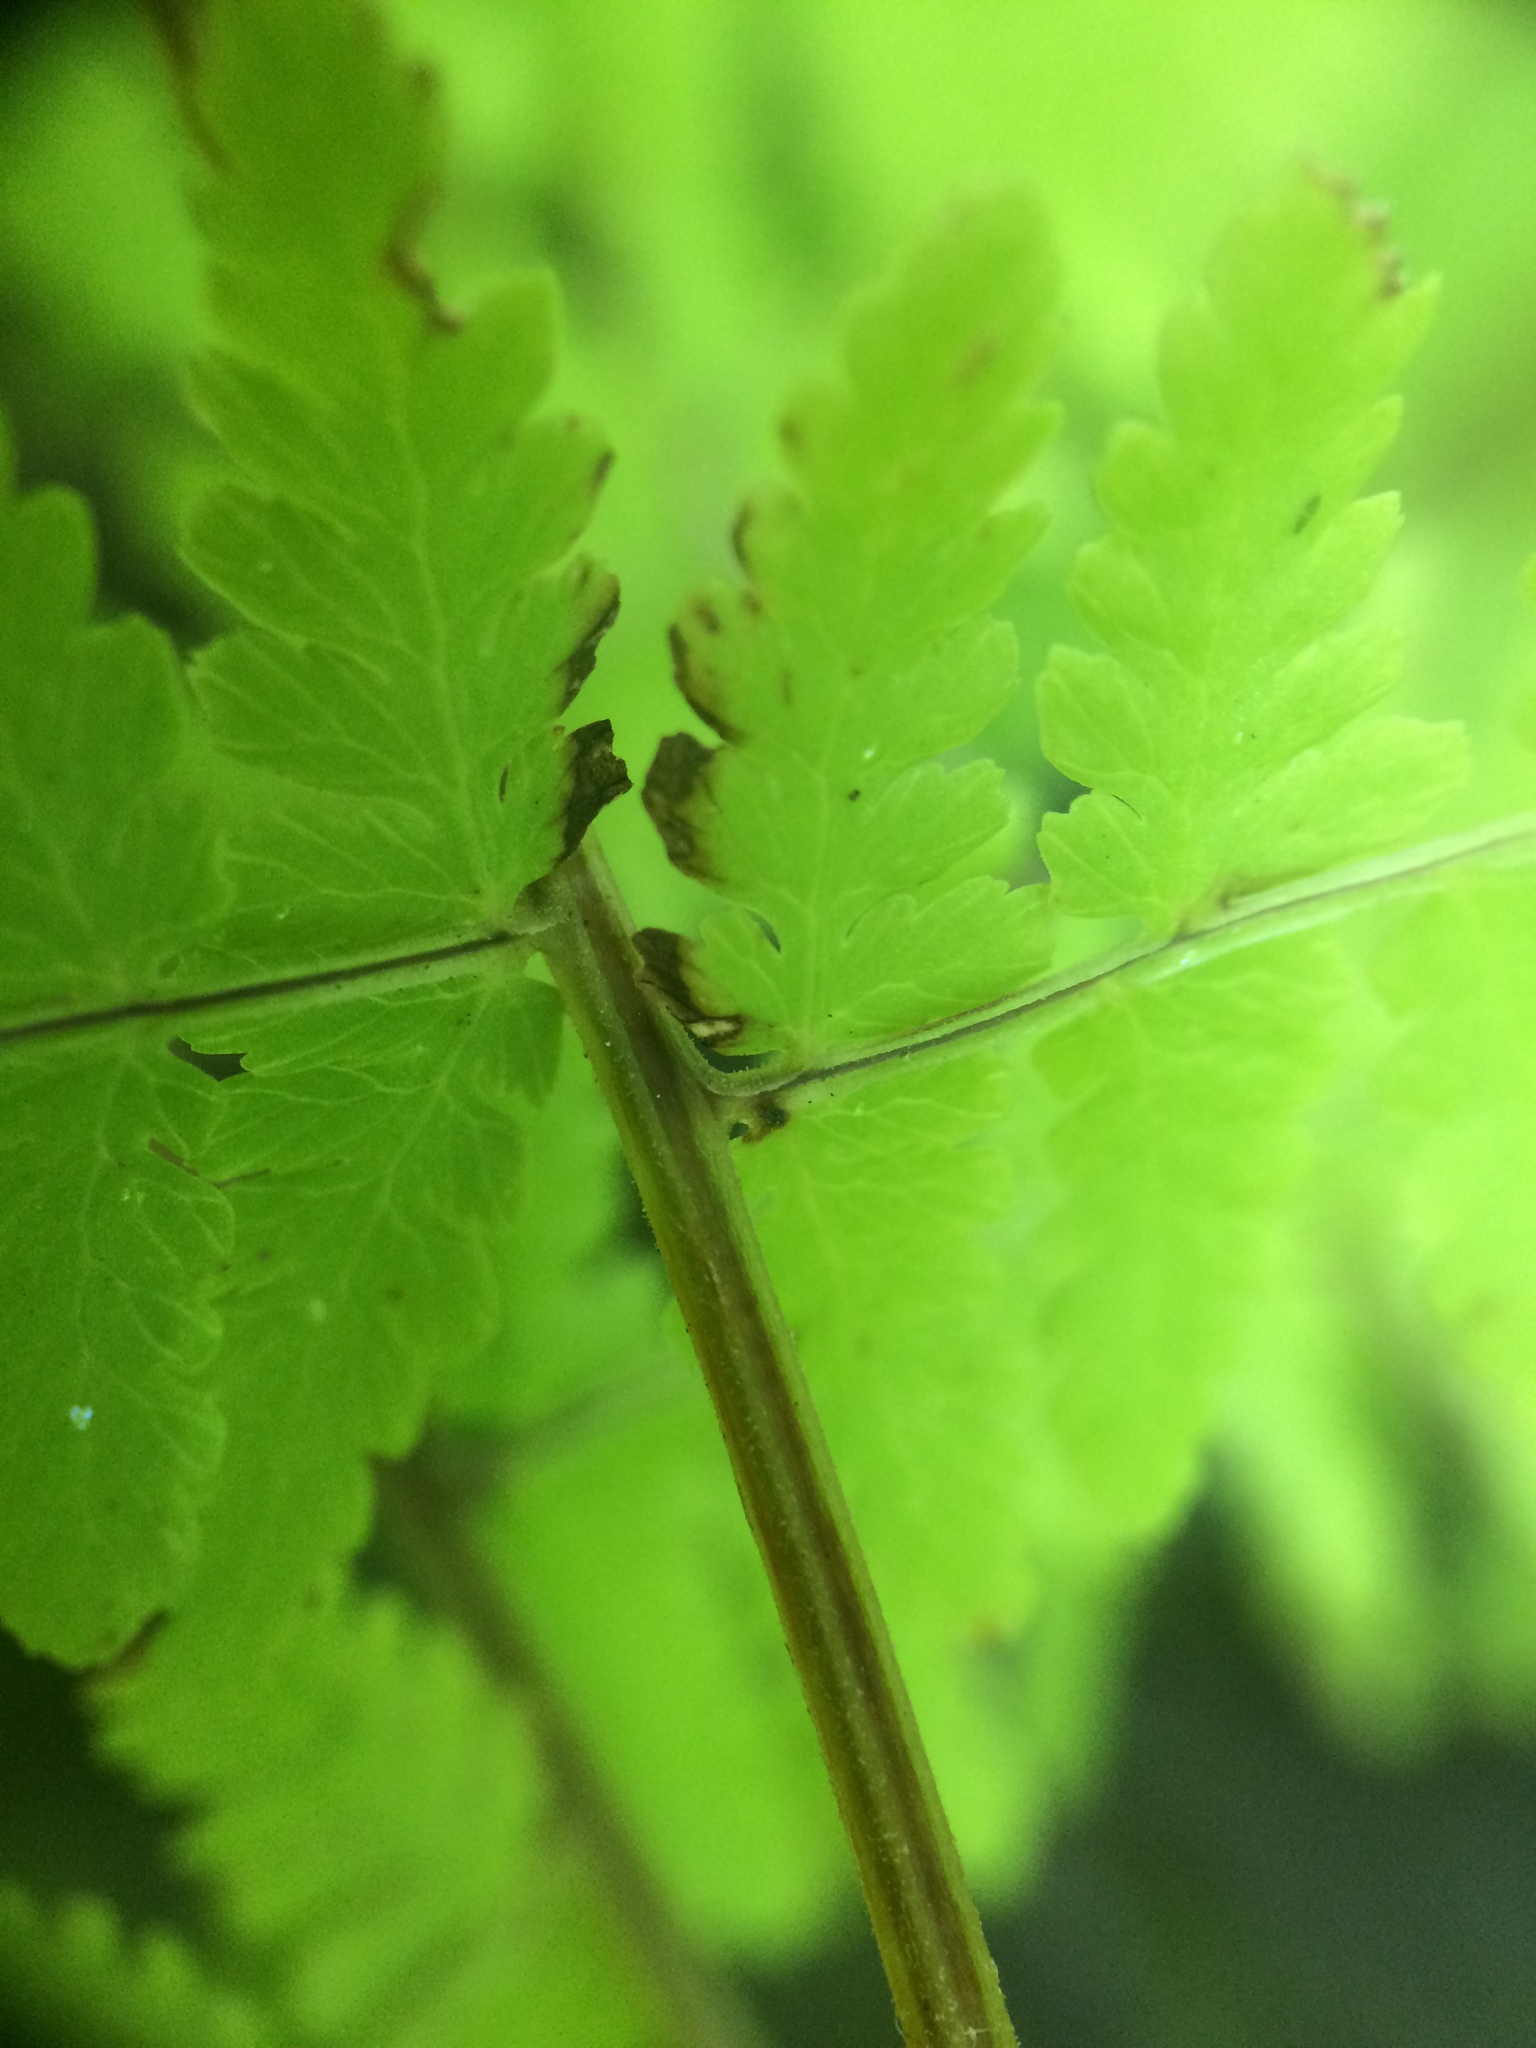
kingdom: Plantae
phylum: Tracheophyta
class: Polypodiopsida
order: Polypodiales
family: Cystopteridaceae
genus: Cystopteris
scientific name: Cystopteris bulbifera
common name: Bulblet bladder fern
